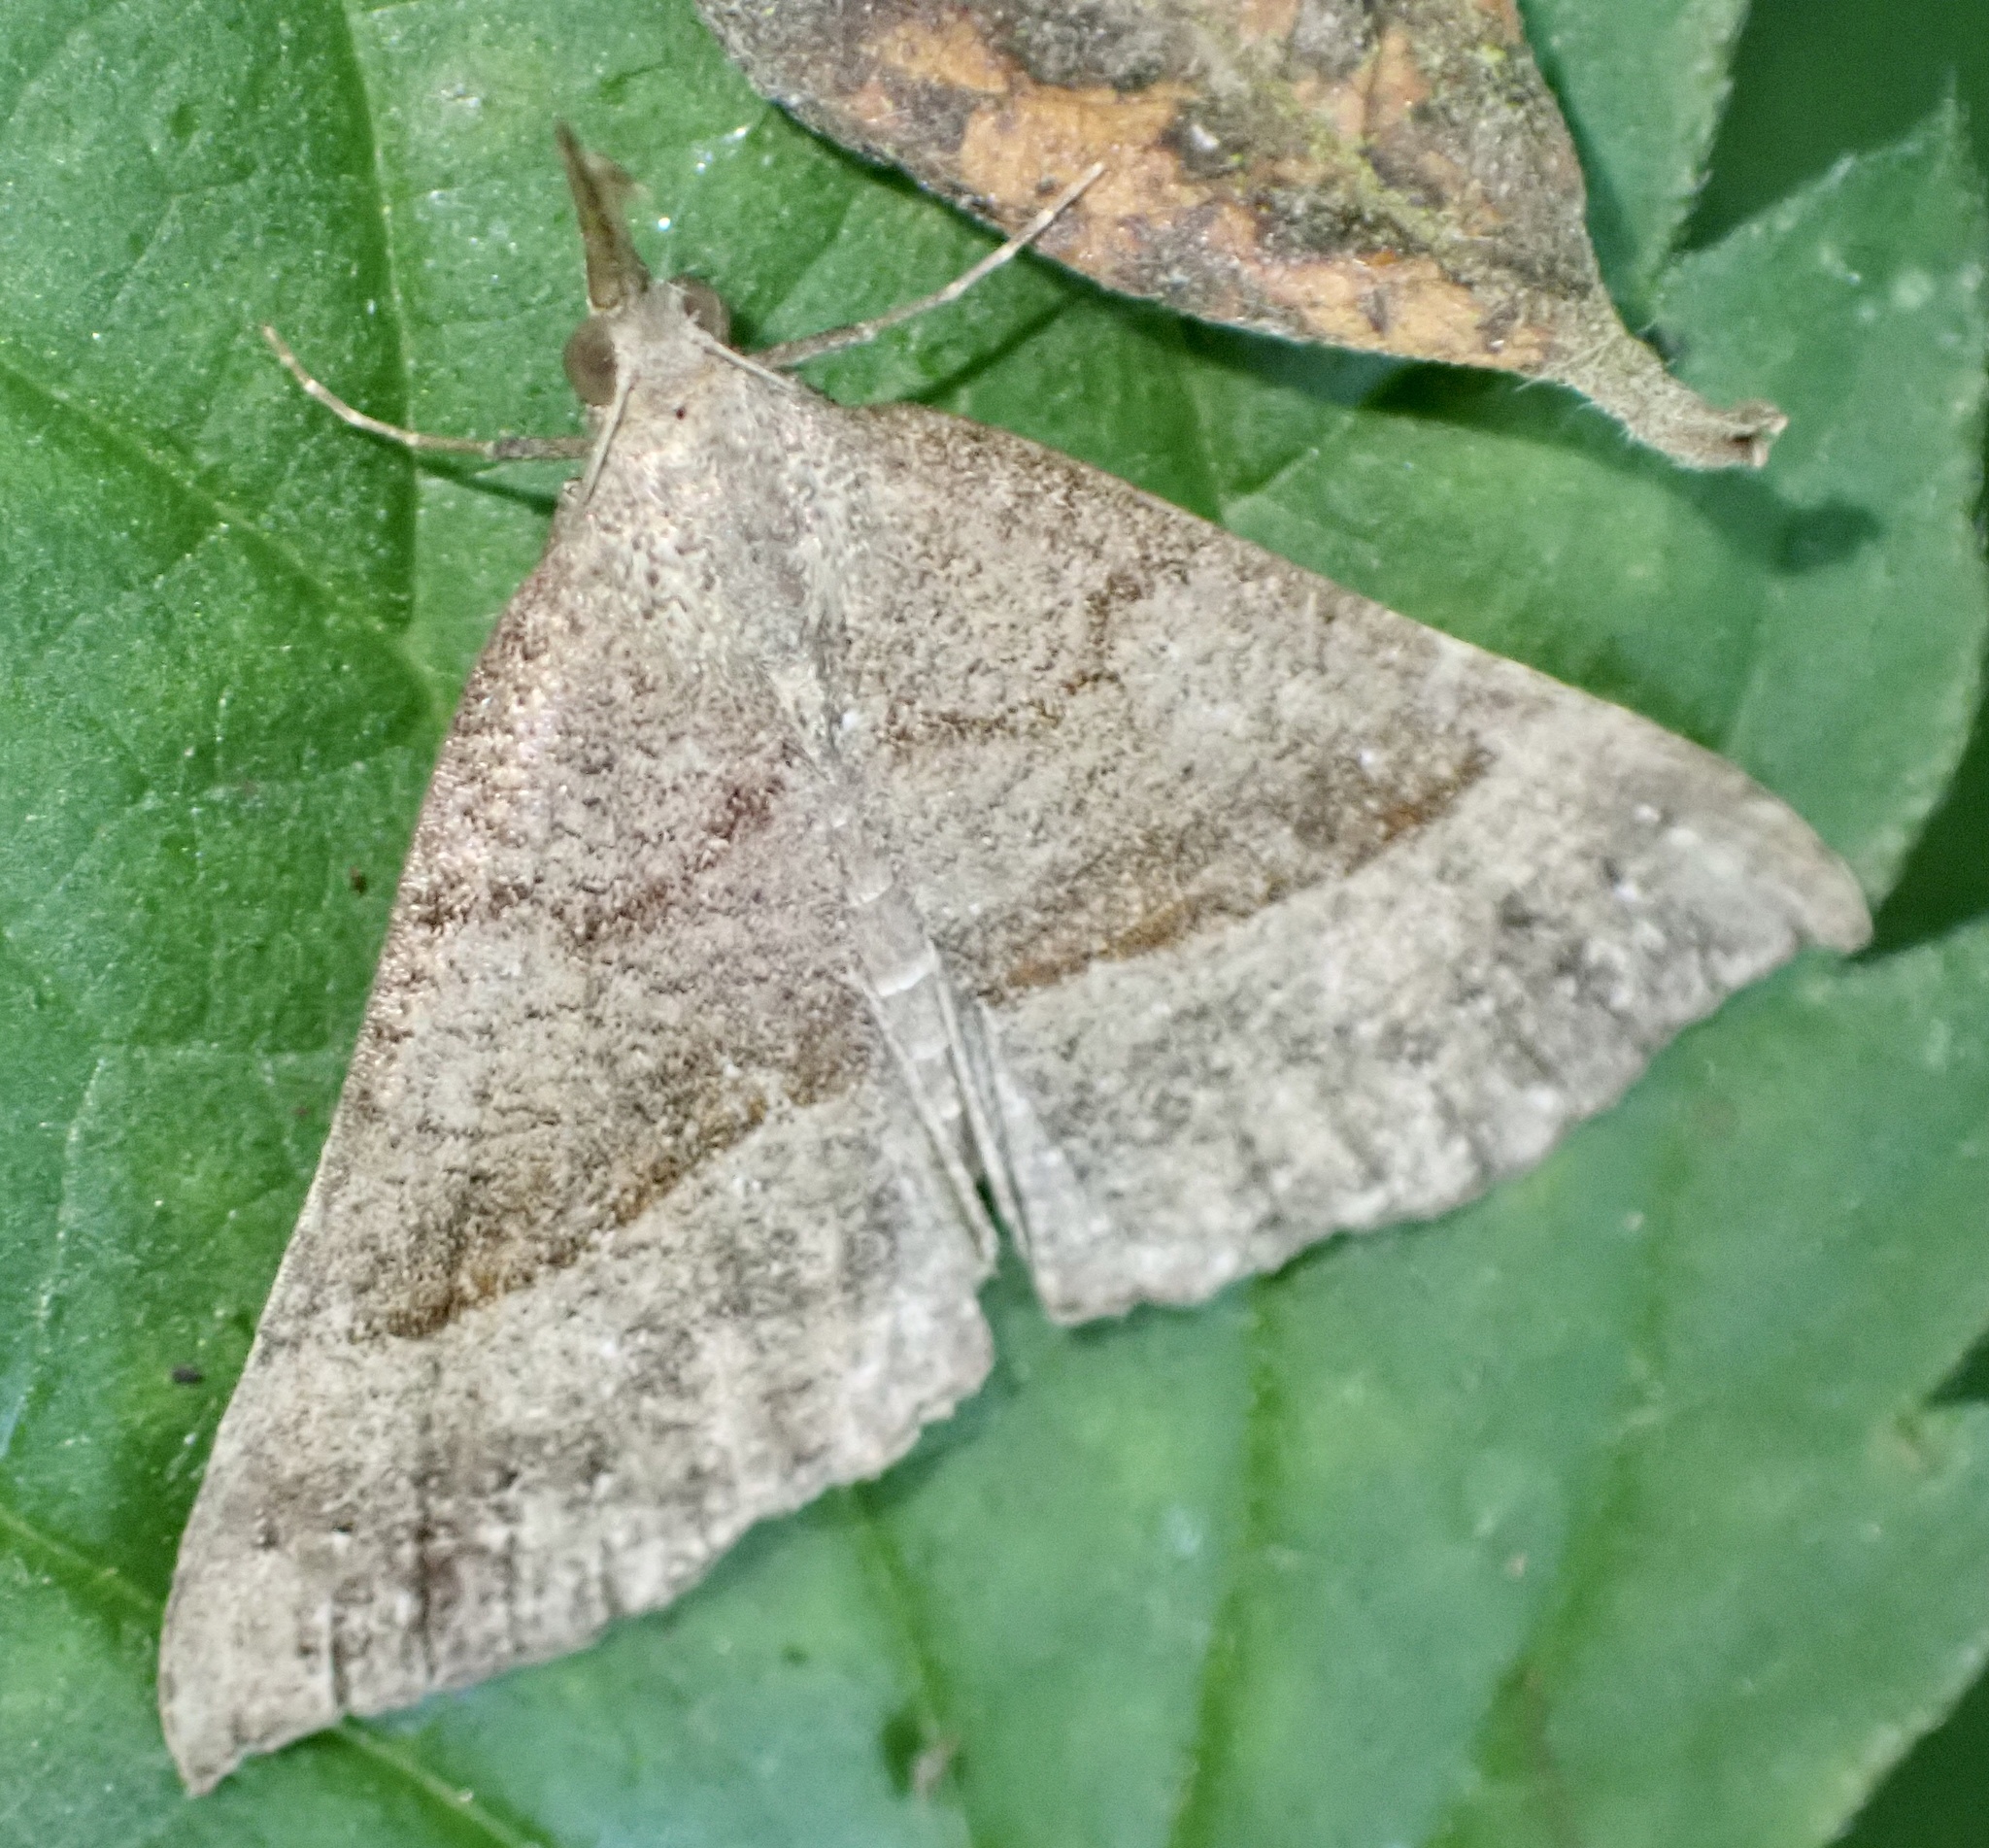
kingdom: Animalia
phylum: Arthropoda
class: Insecta
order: Lepidoptera
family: Erebidae
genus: Hypena
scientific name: Hypena proboscidalis
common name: Snout
